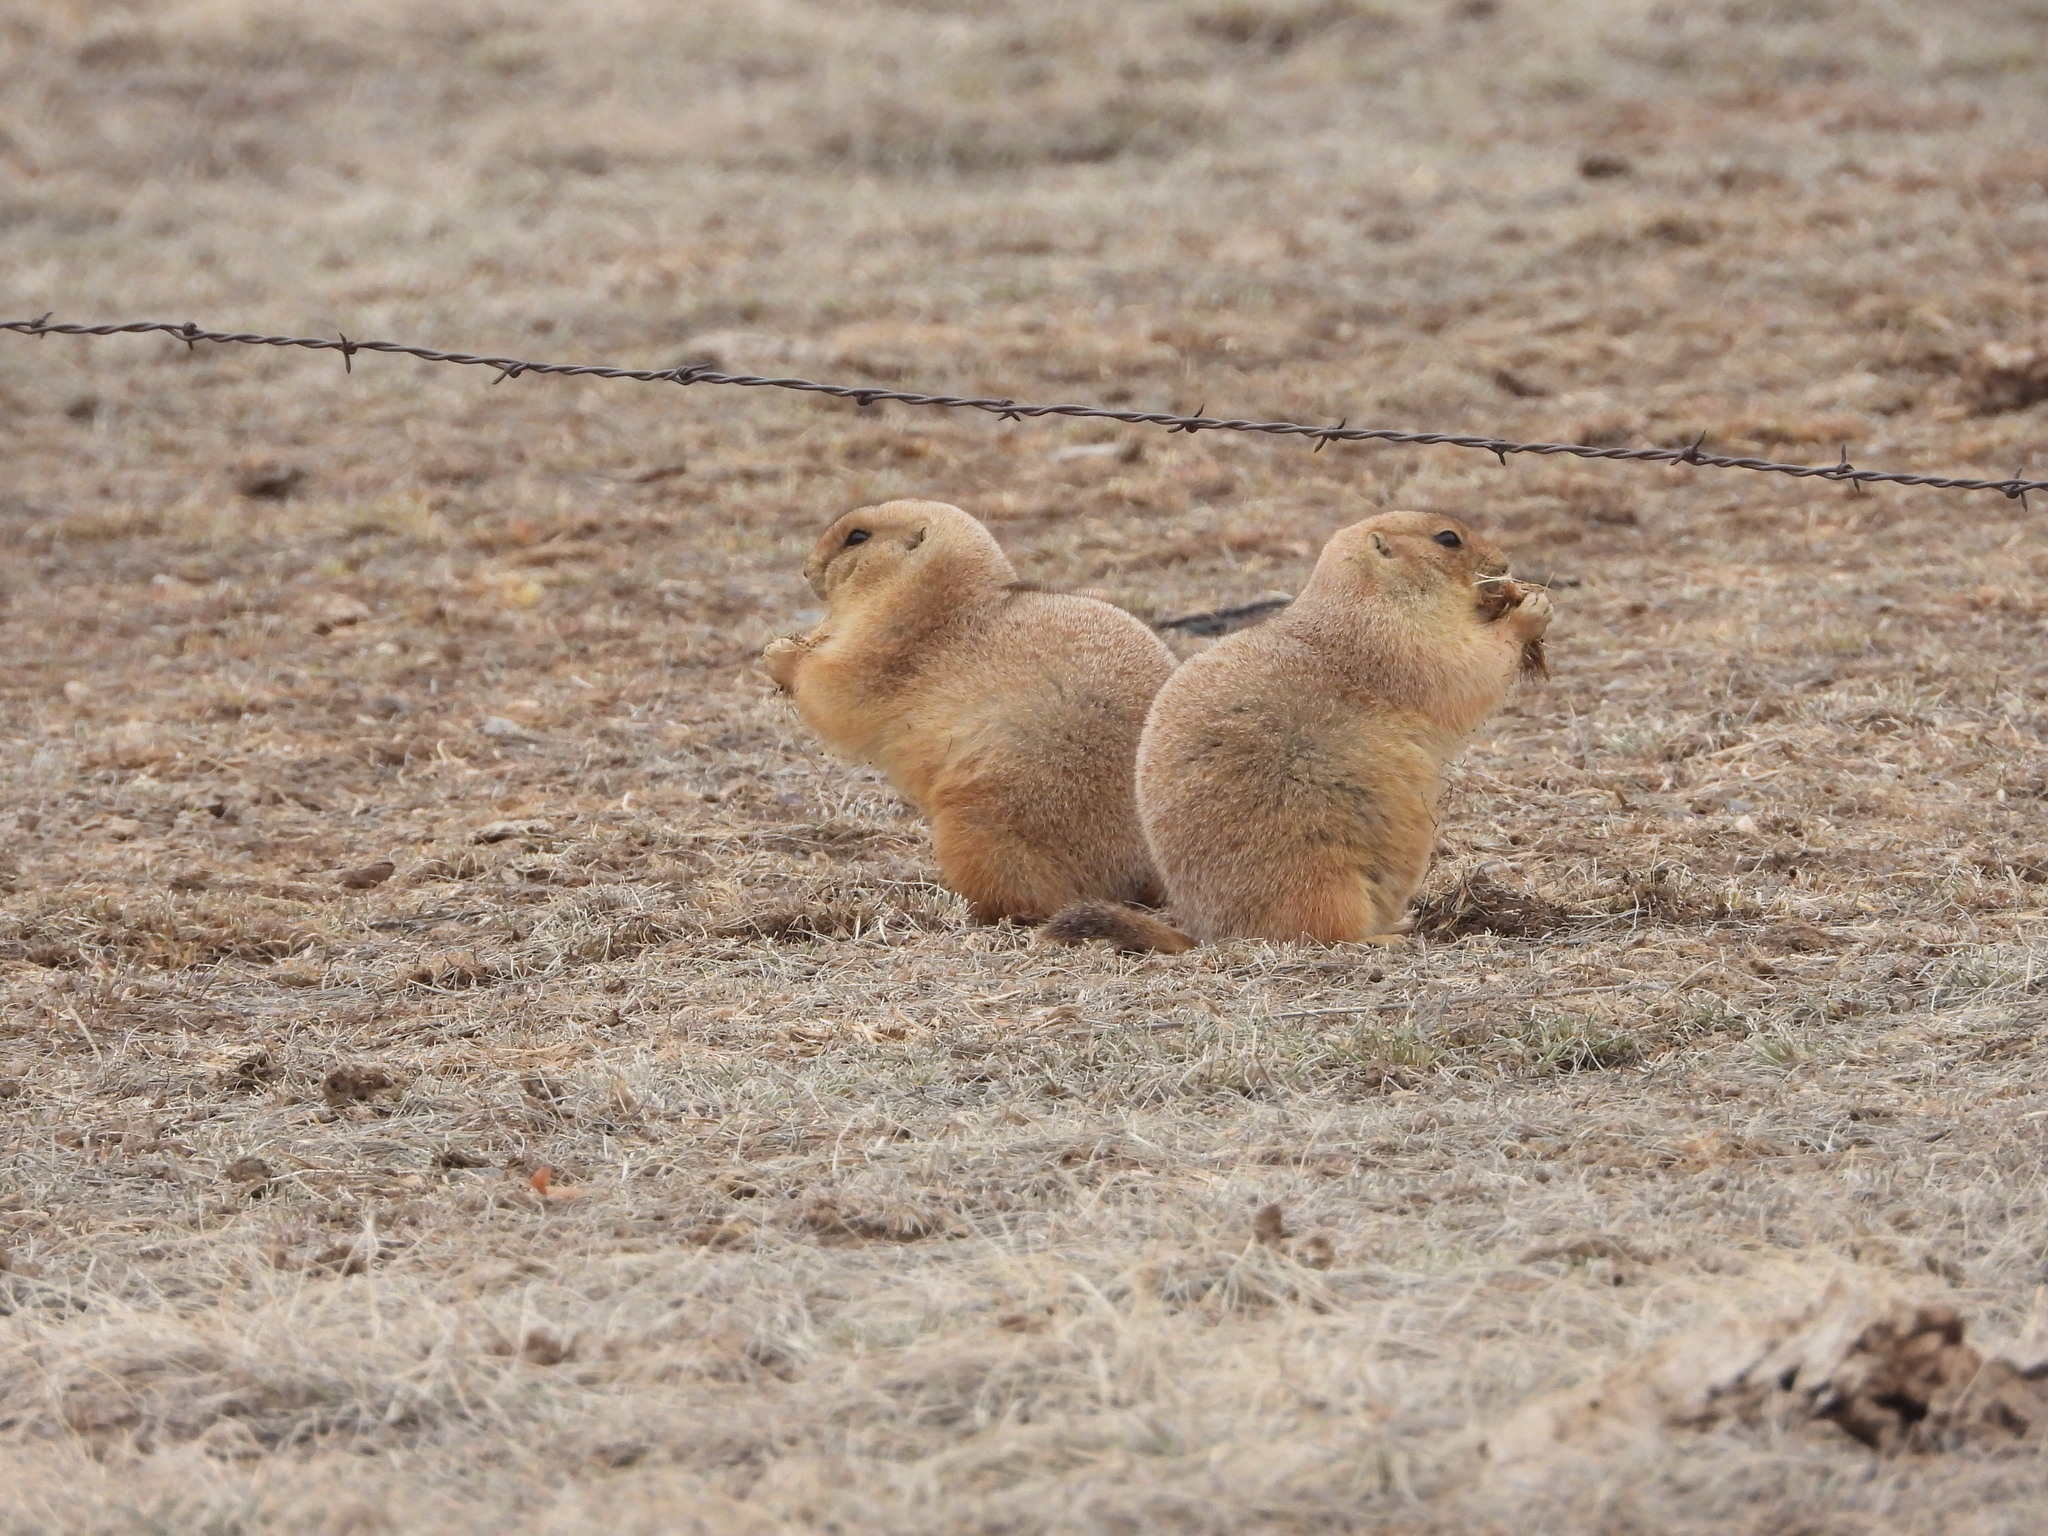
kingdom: Animalia
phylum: Chordata
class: Mammalia
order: Rodentia
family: Sciuridae
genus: Cynomys
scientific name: Cynomys ludovicianus
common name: Black-tailed prairie dog
